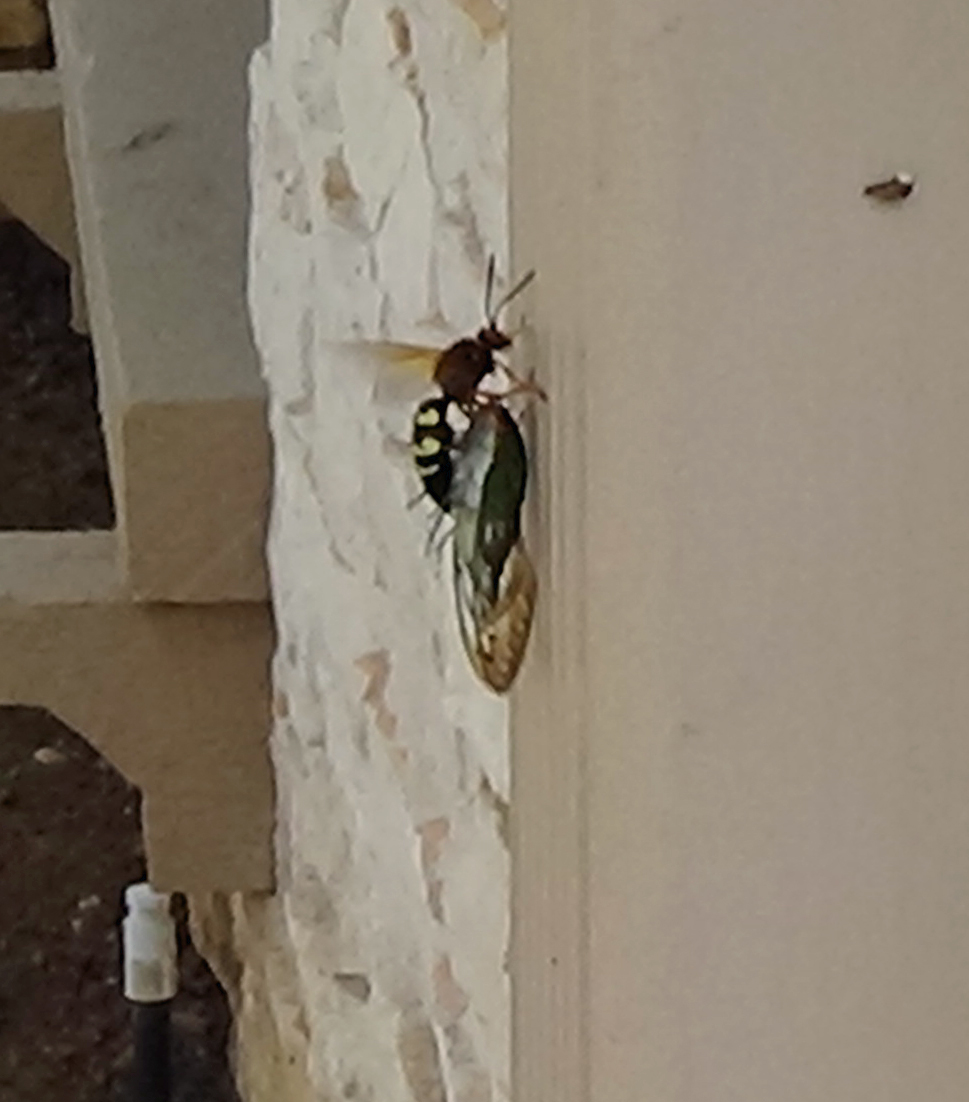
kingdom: Animalia
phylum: Arthropoda
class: Insecta
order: Hymenoptera
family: Crabronidae
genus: Sphecius
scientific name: Sphecius speciosus
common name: Cicada killer
